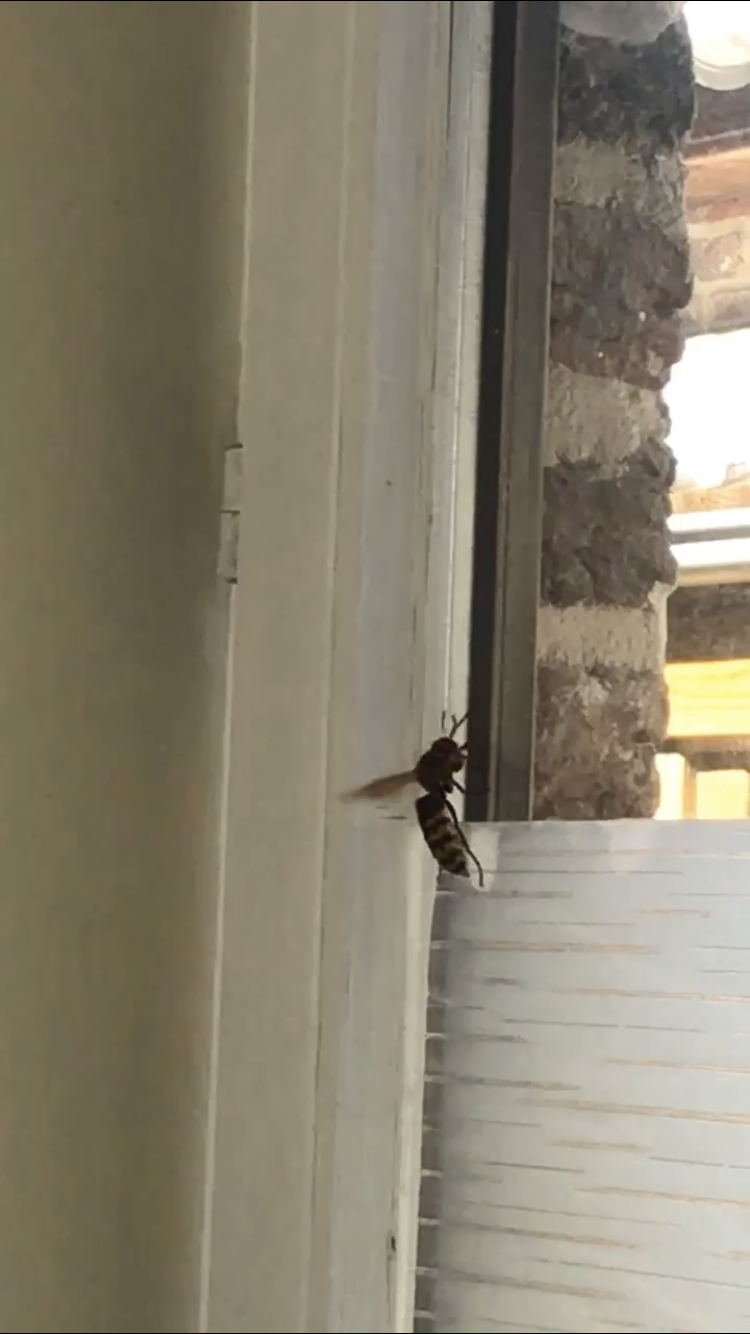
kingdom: Animalia
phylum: Arthropoda
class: Insecta
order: Hymenoptera
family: Vespidae
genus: Vespa
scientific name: Vespa crabro
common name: Hornet
